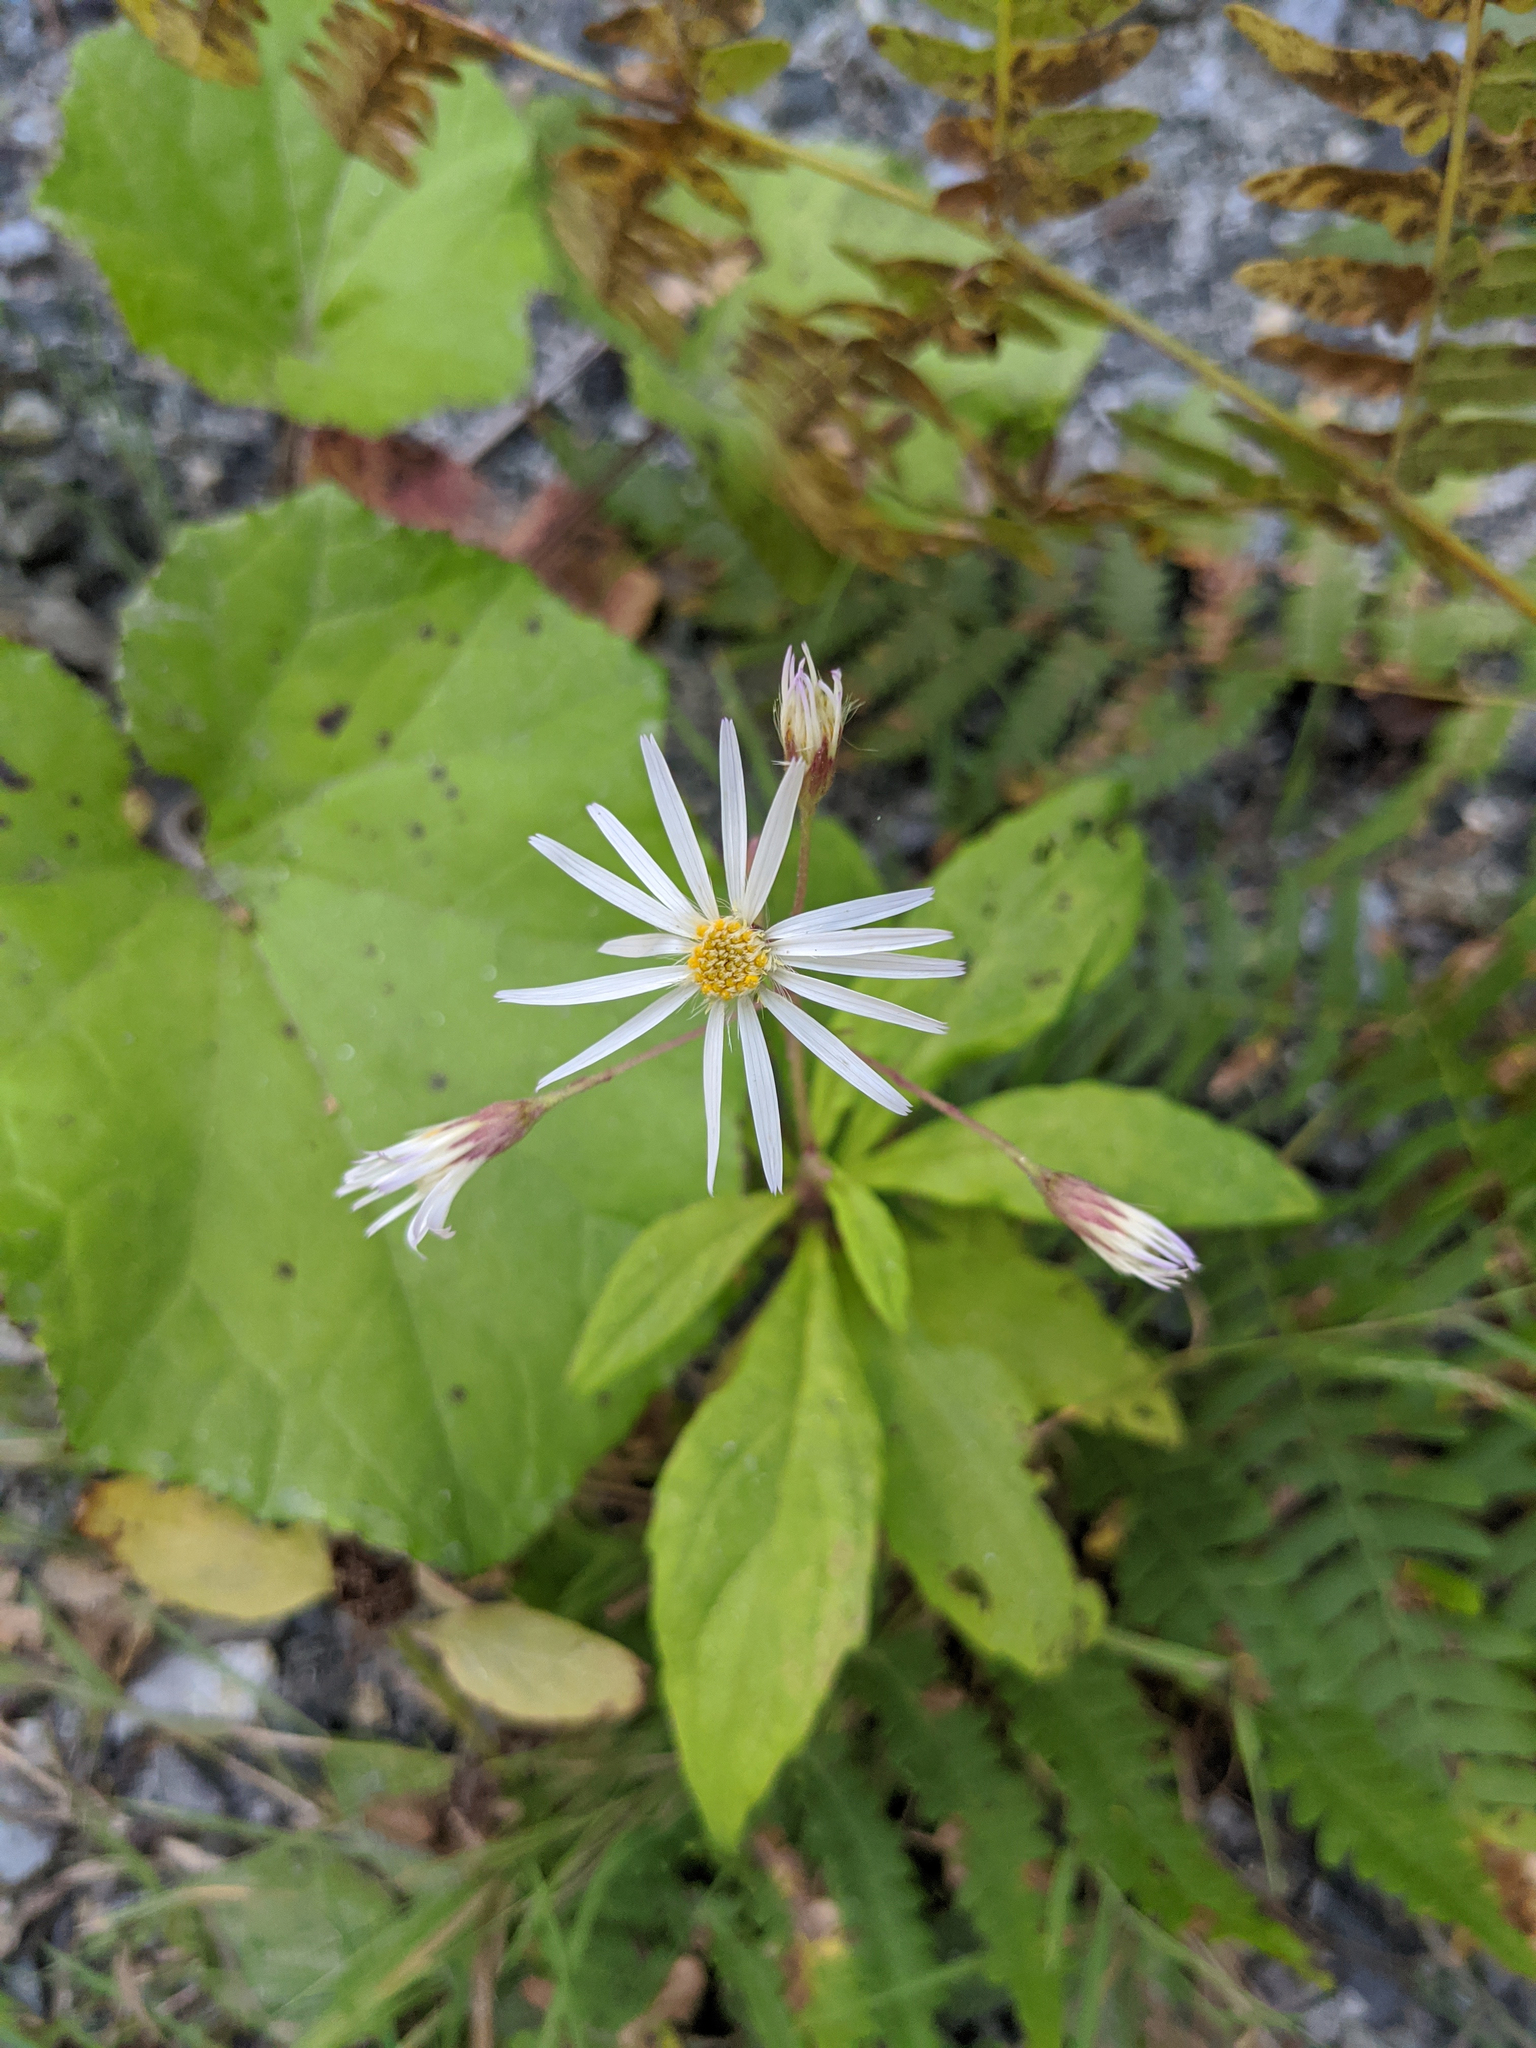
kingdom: Plantae
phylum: Tracheophyta
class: Magnoliopsida
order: Asterales
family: Asteraceae
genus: Oclemena
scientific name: Oclemena acuminata
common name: Mountain aster
